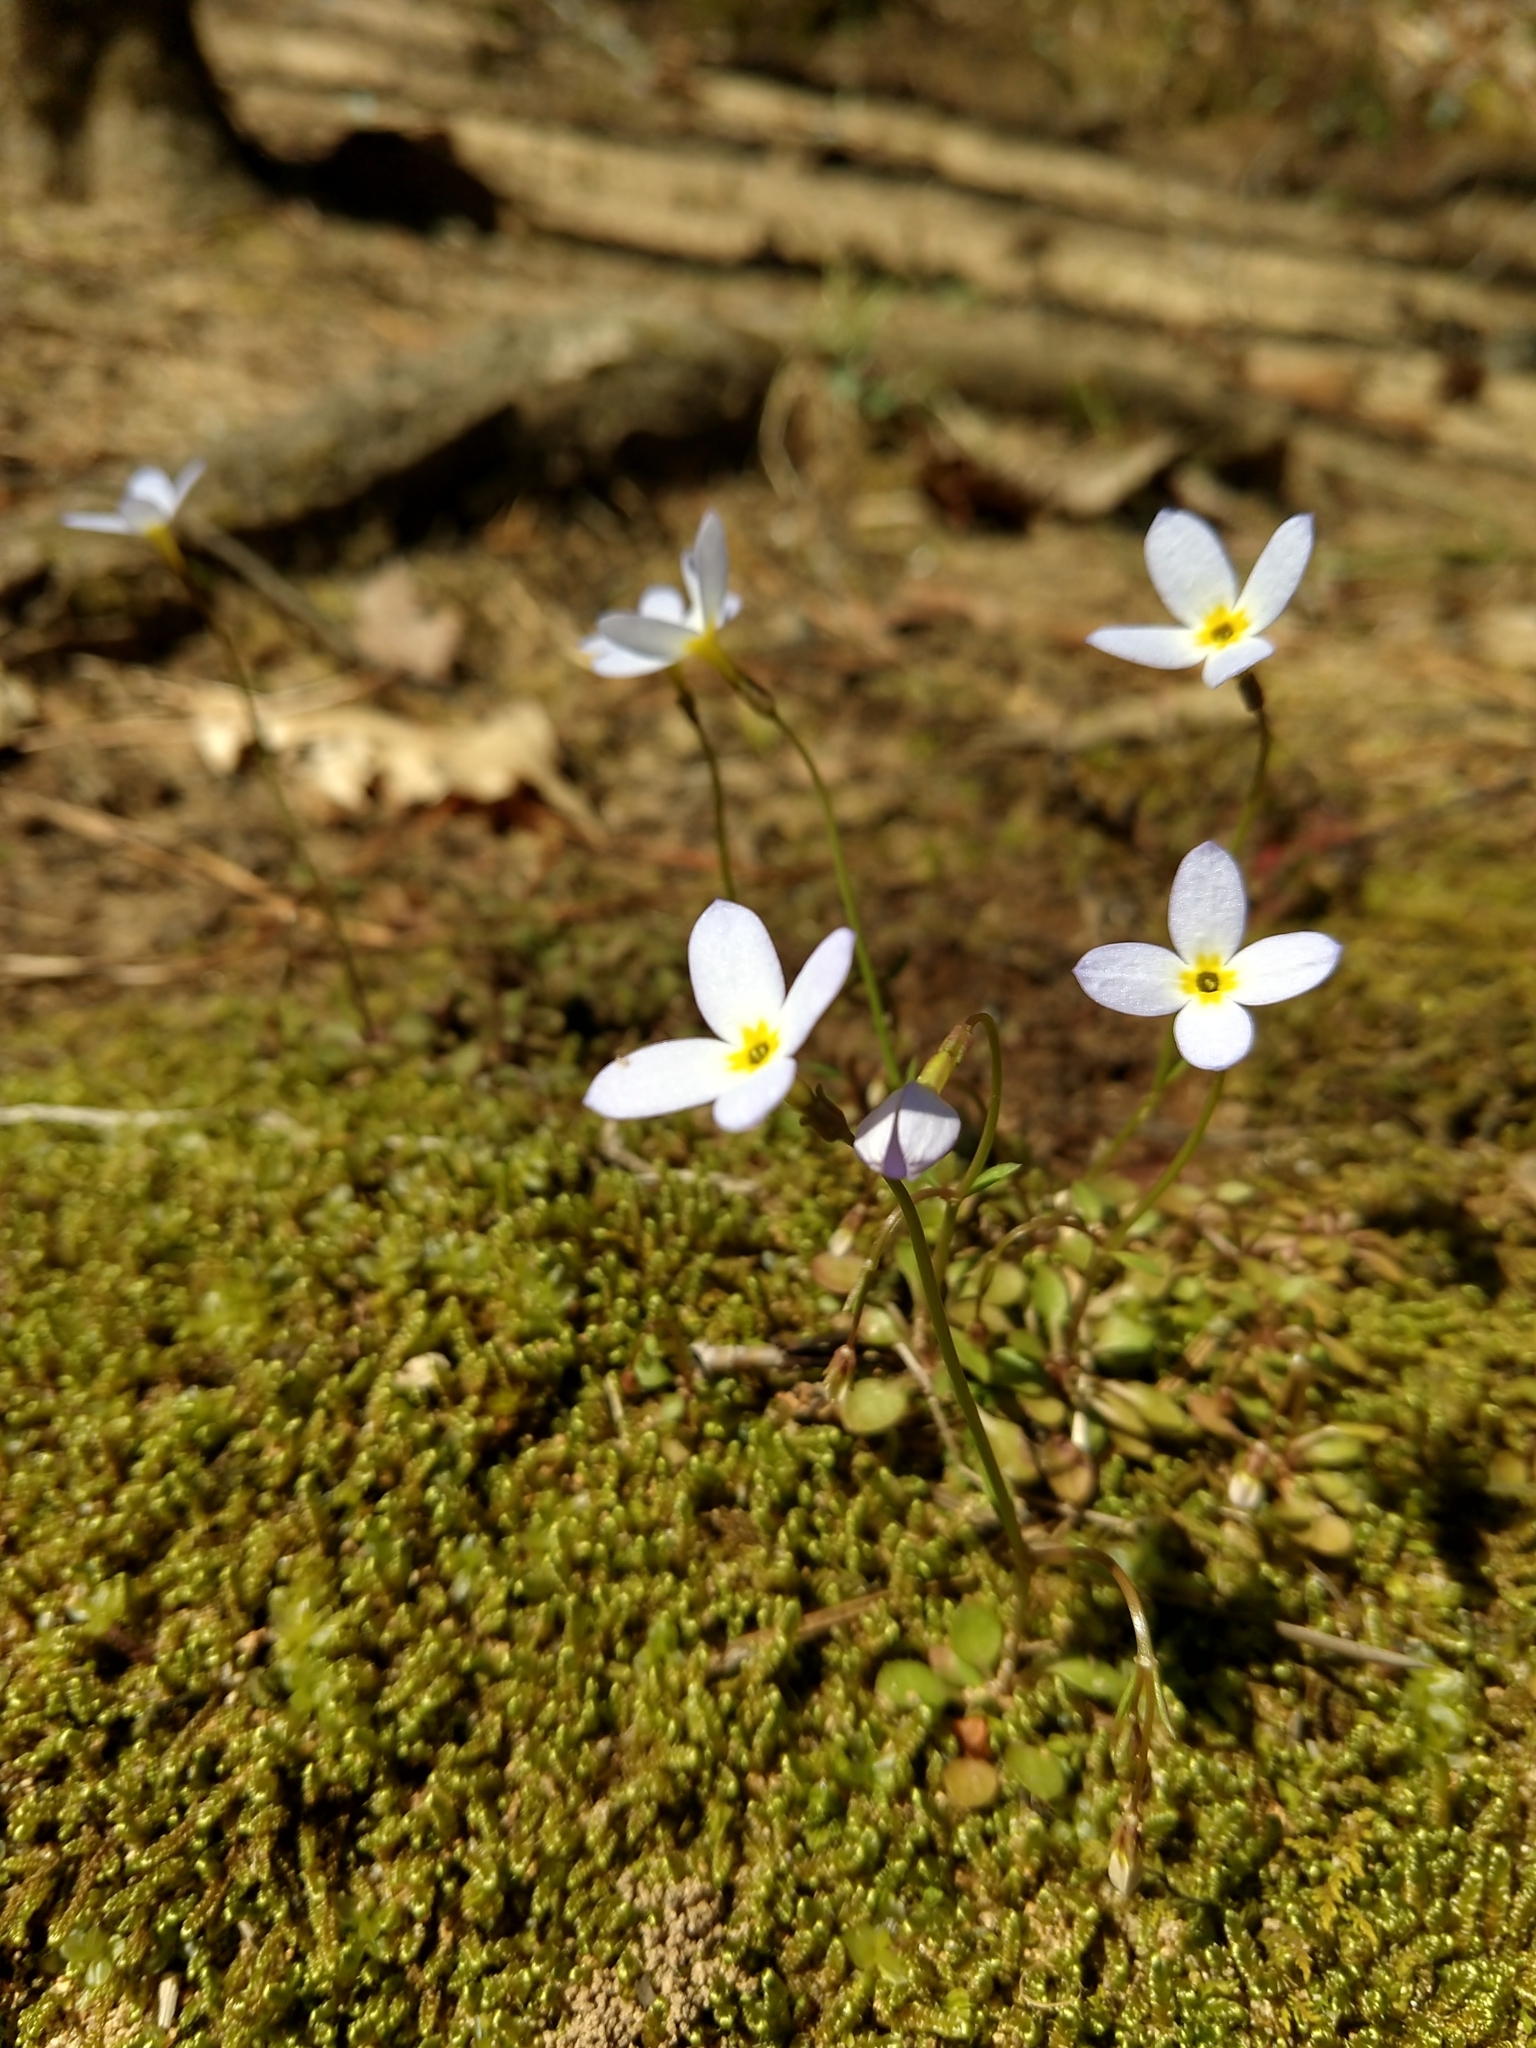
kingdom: Plantae
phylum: Tracheophyta
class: Magnoliopsida
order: Gentianales
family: Rubiaceae
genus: Houstonia
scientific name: Houstonia caerulea
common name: Bluets
